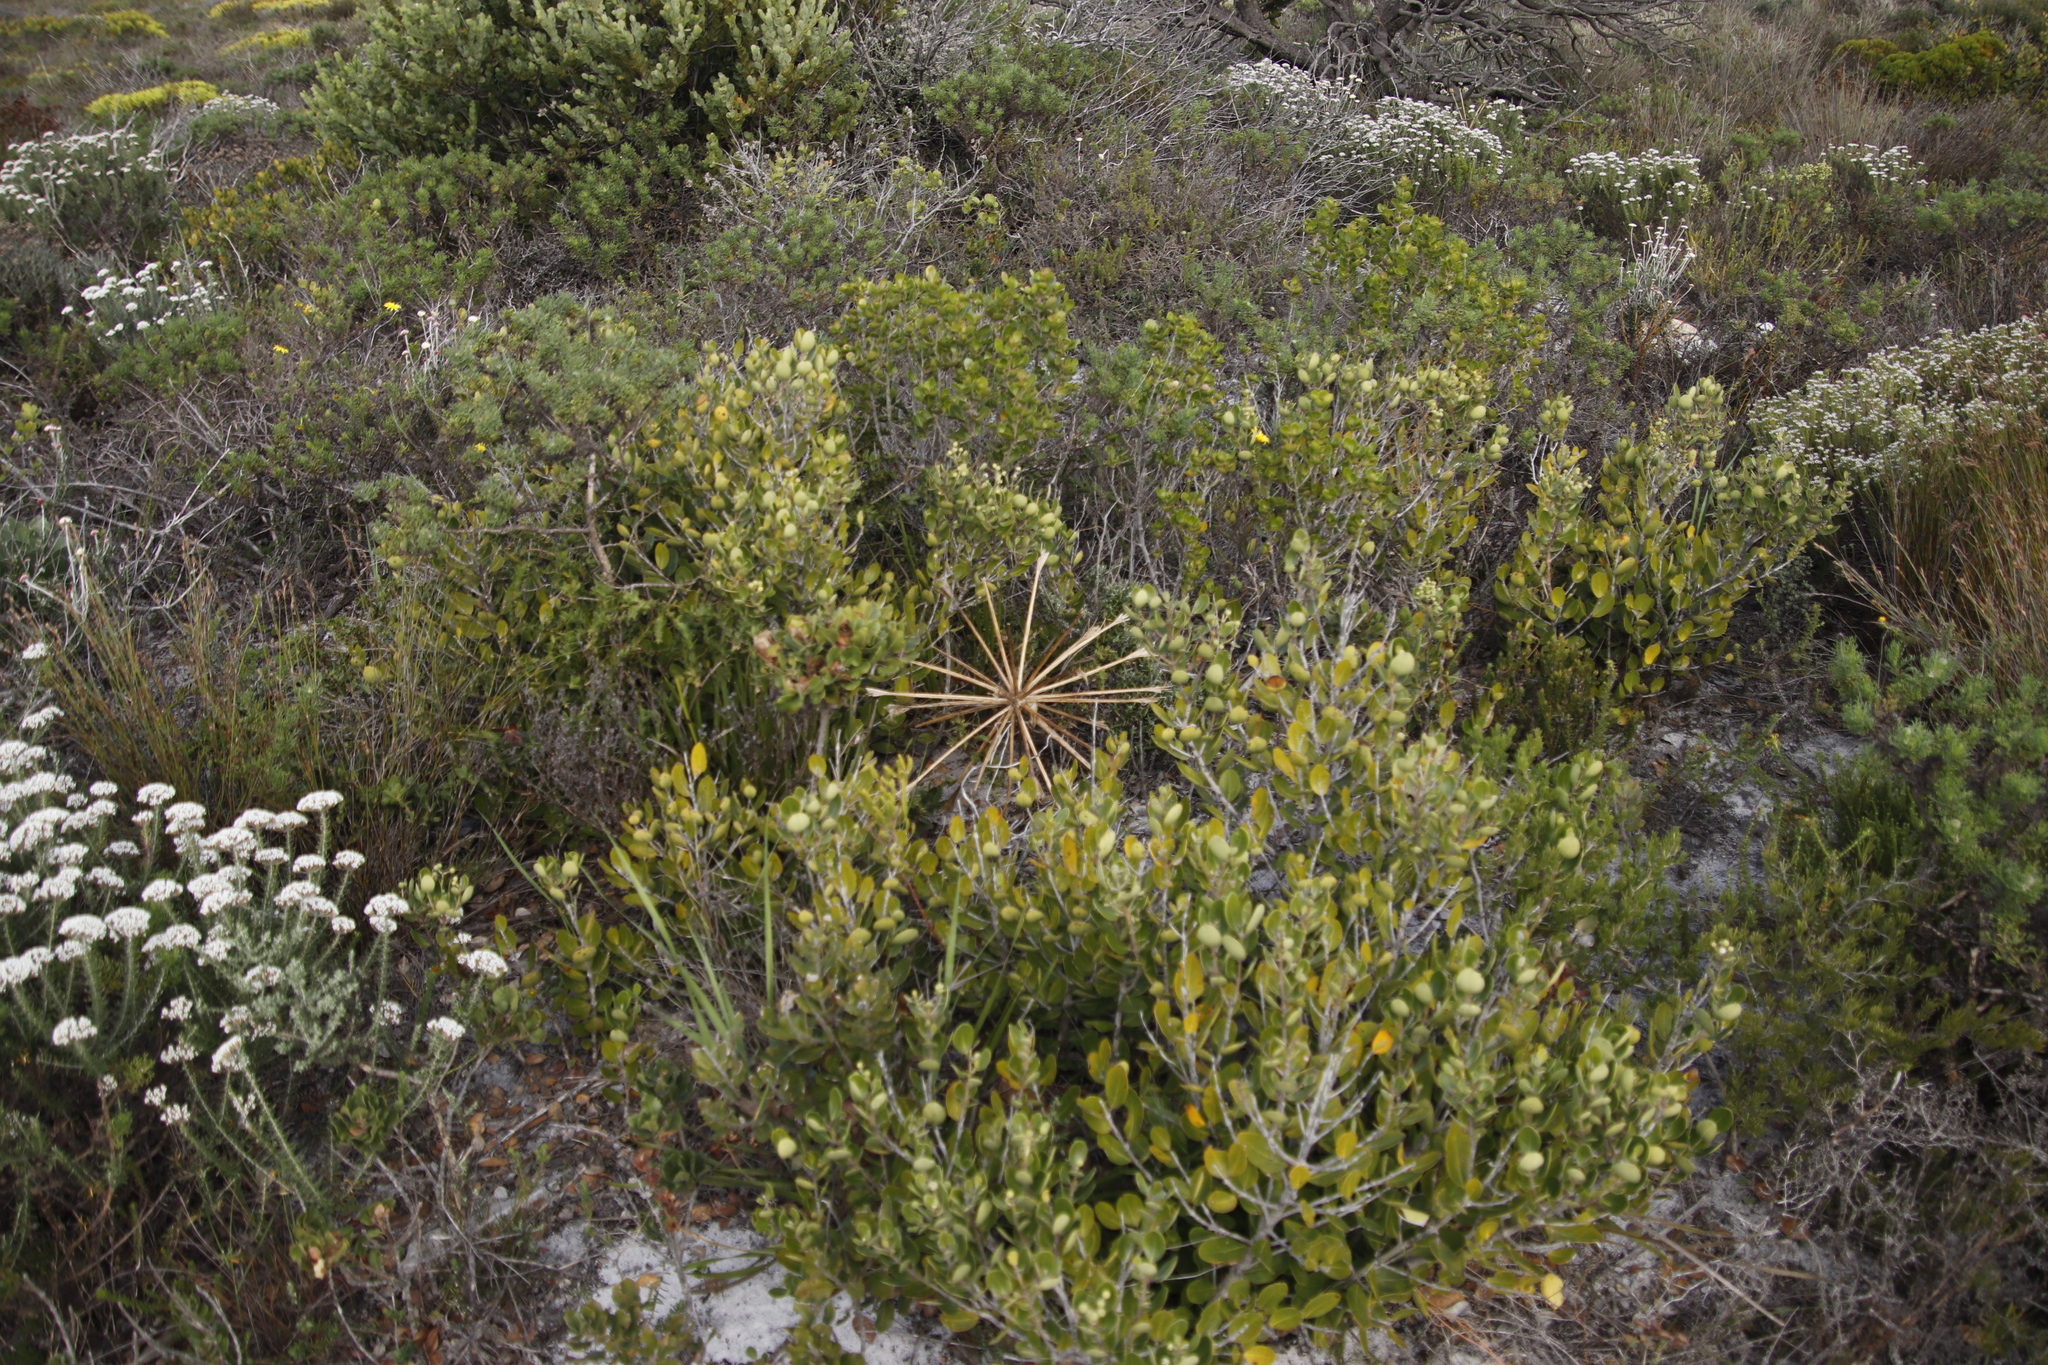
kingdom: Plantae
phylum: Tracheophyta
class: Liliopsida
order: Asparagales
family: Amaryllidaceae
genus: Brunsvigia
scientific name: Brunsvigia orientalis
